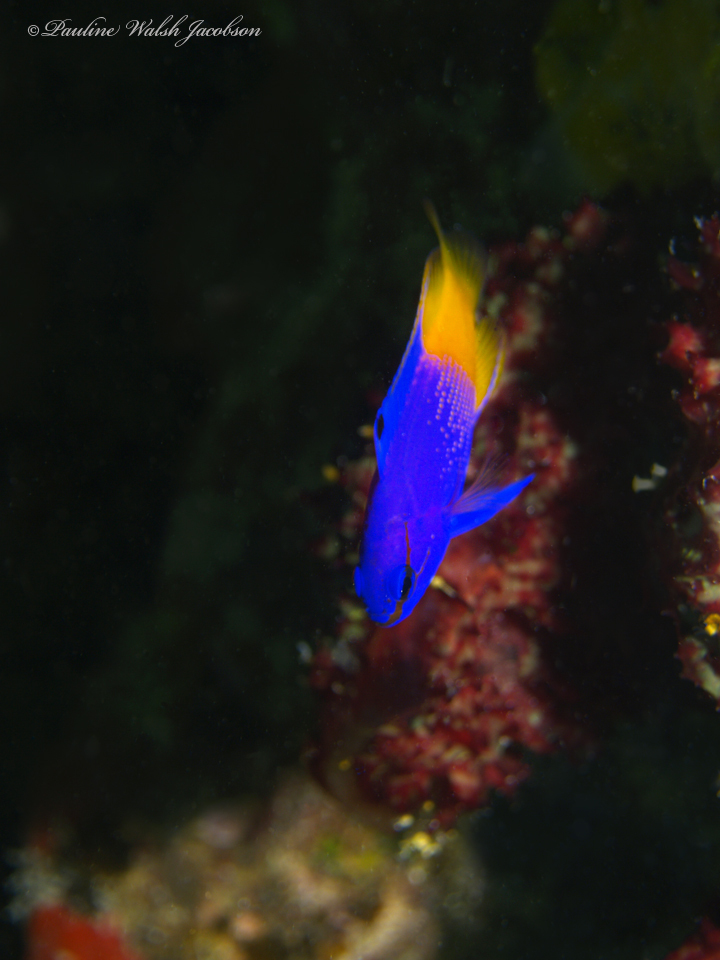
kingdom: Animalia
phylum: Chordata
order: Perciformes
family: Grammatidae
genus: Gramma
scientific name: Gramma loreto
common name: Fairy basslet
